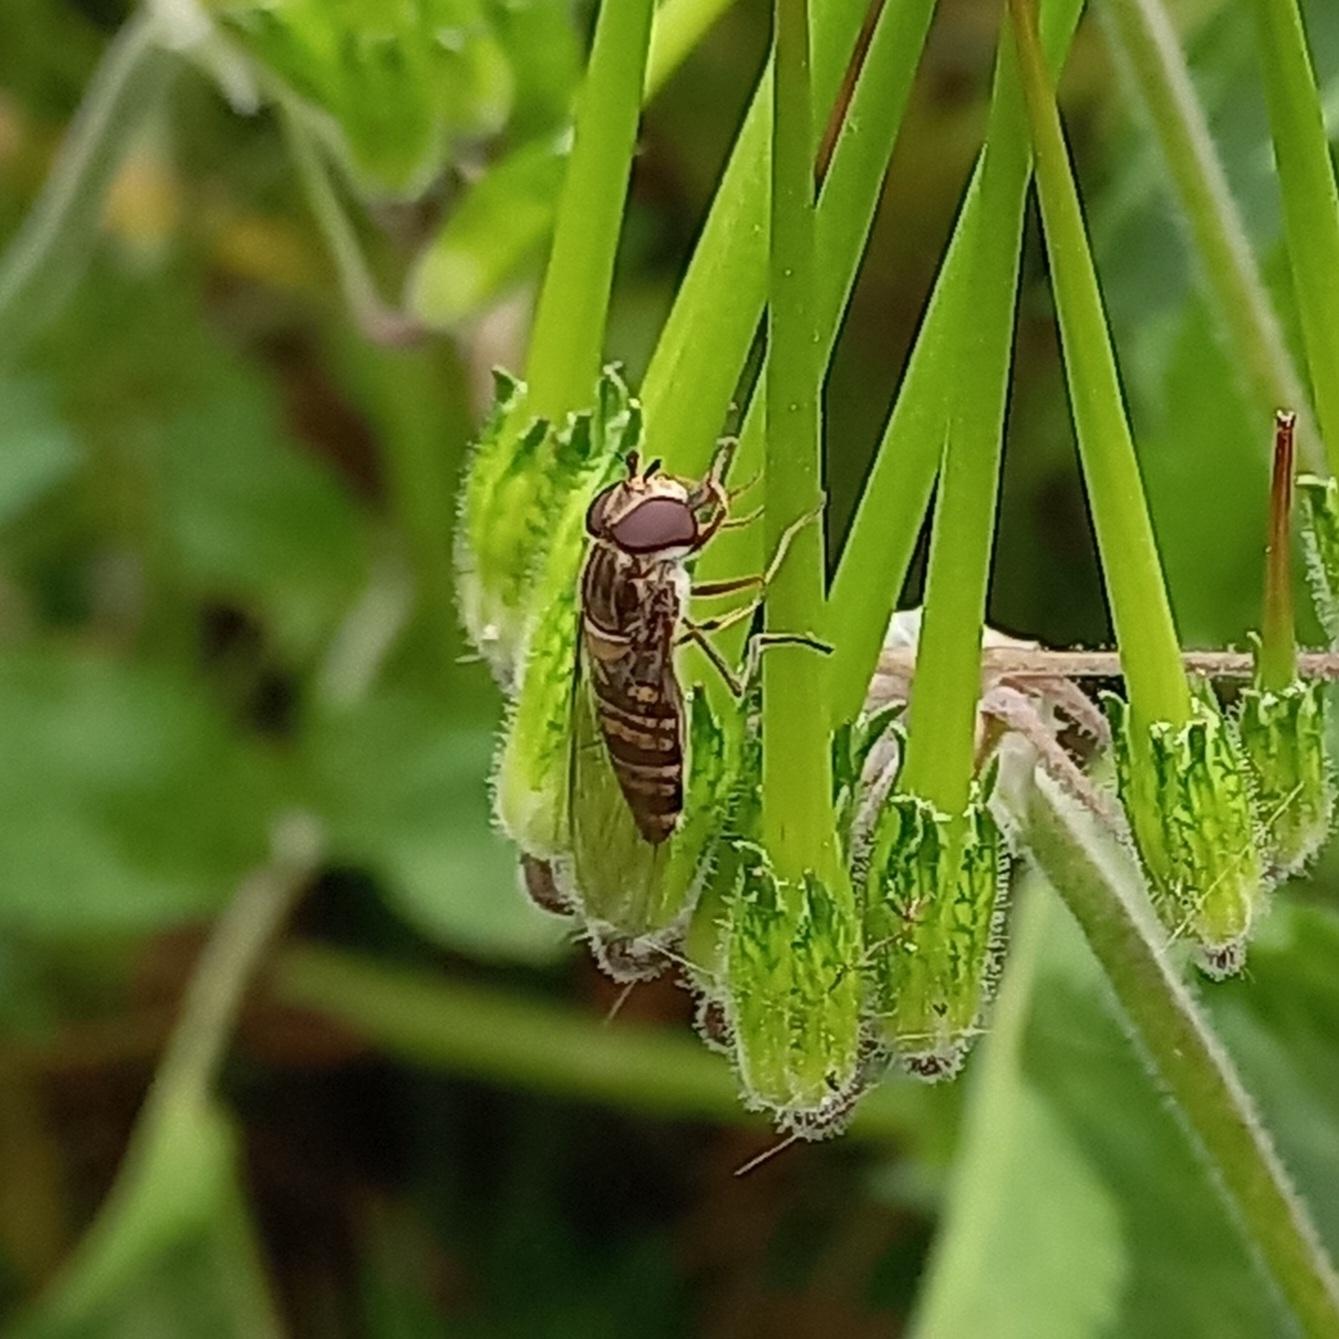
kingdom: Animalia
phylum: Arthropoda
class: Insecta
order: Diptera
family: Syrphidae
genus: Episyrphus
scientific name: Episyrphus balteatus
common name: Marmalade hoverfly
